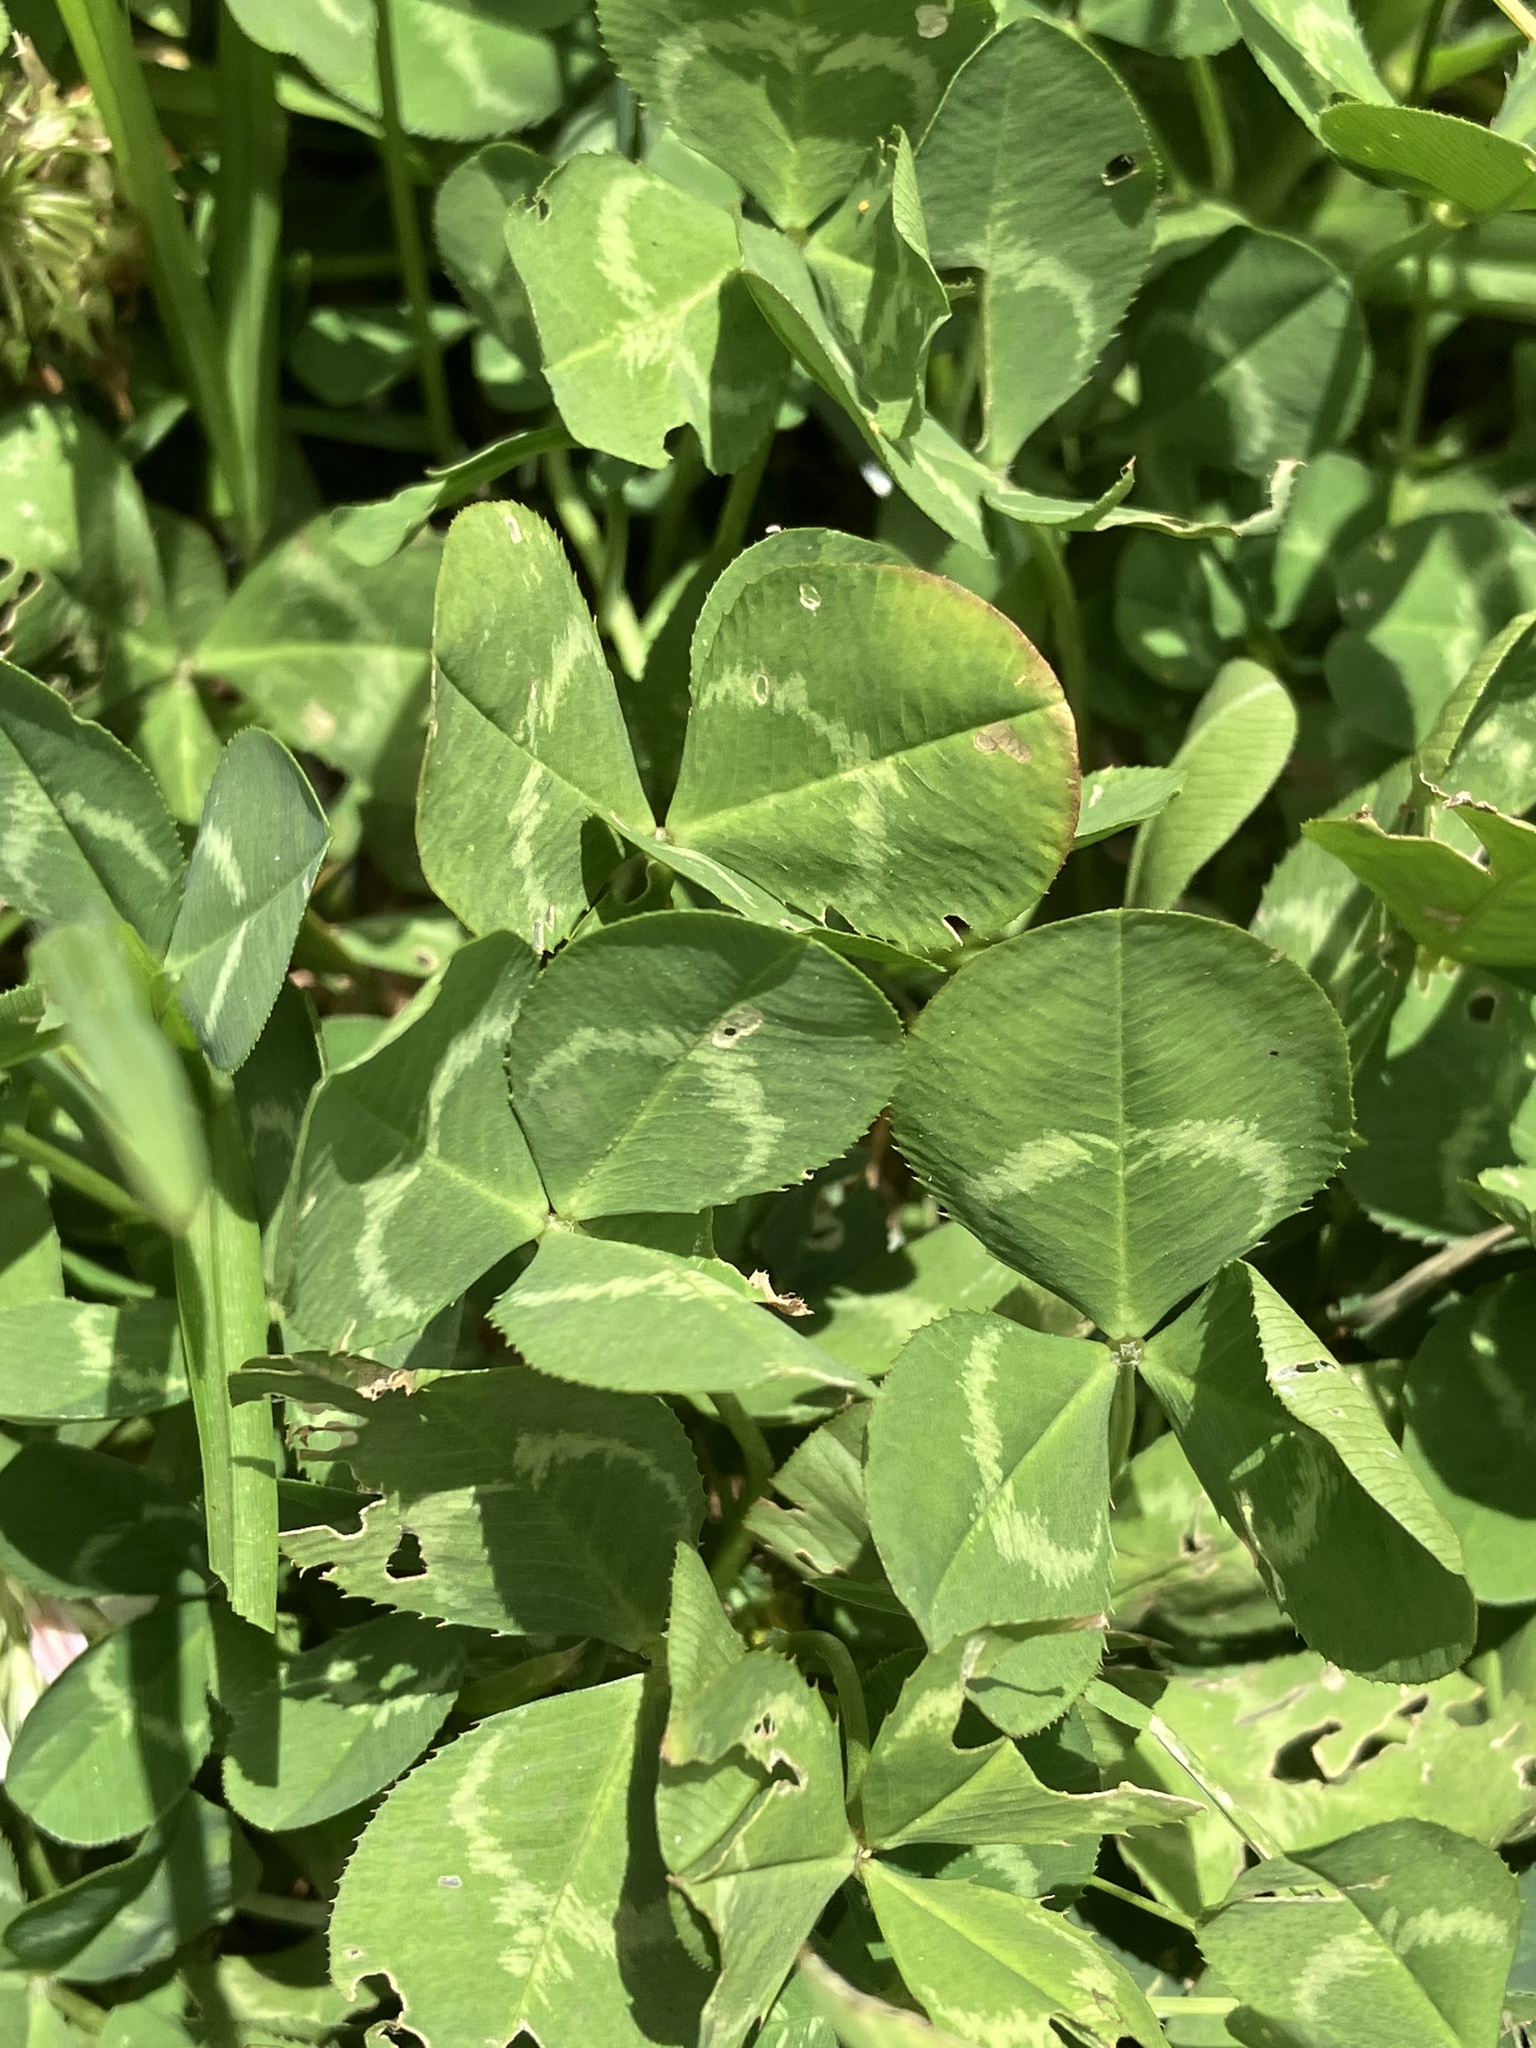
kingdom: Plantae
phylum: Tracheophyta
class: Magnoliopsida
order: Fabales
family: Fabaceae
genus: Trifolium
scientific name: Trifolium repens
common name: White clover
